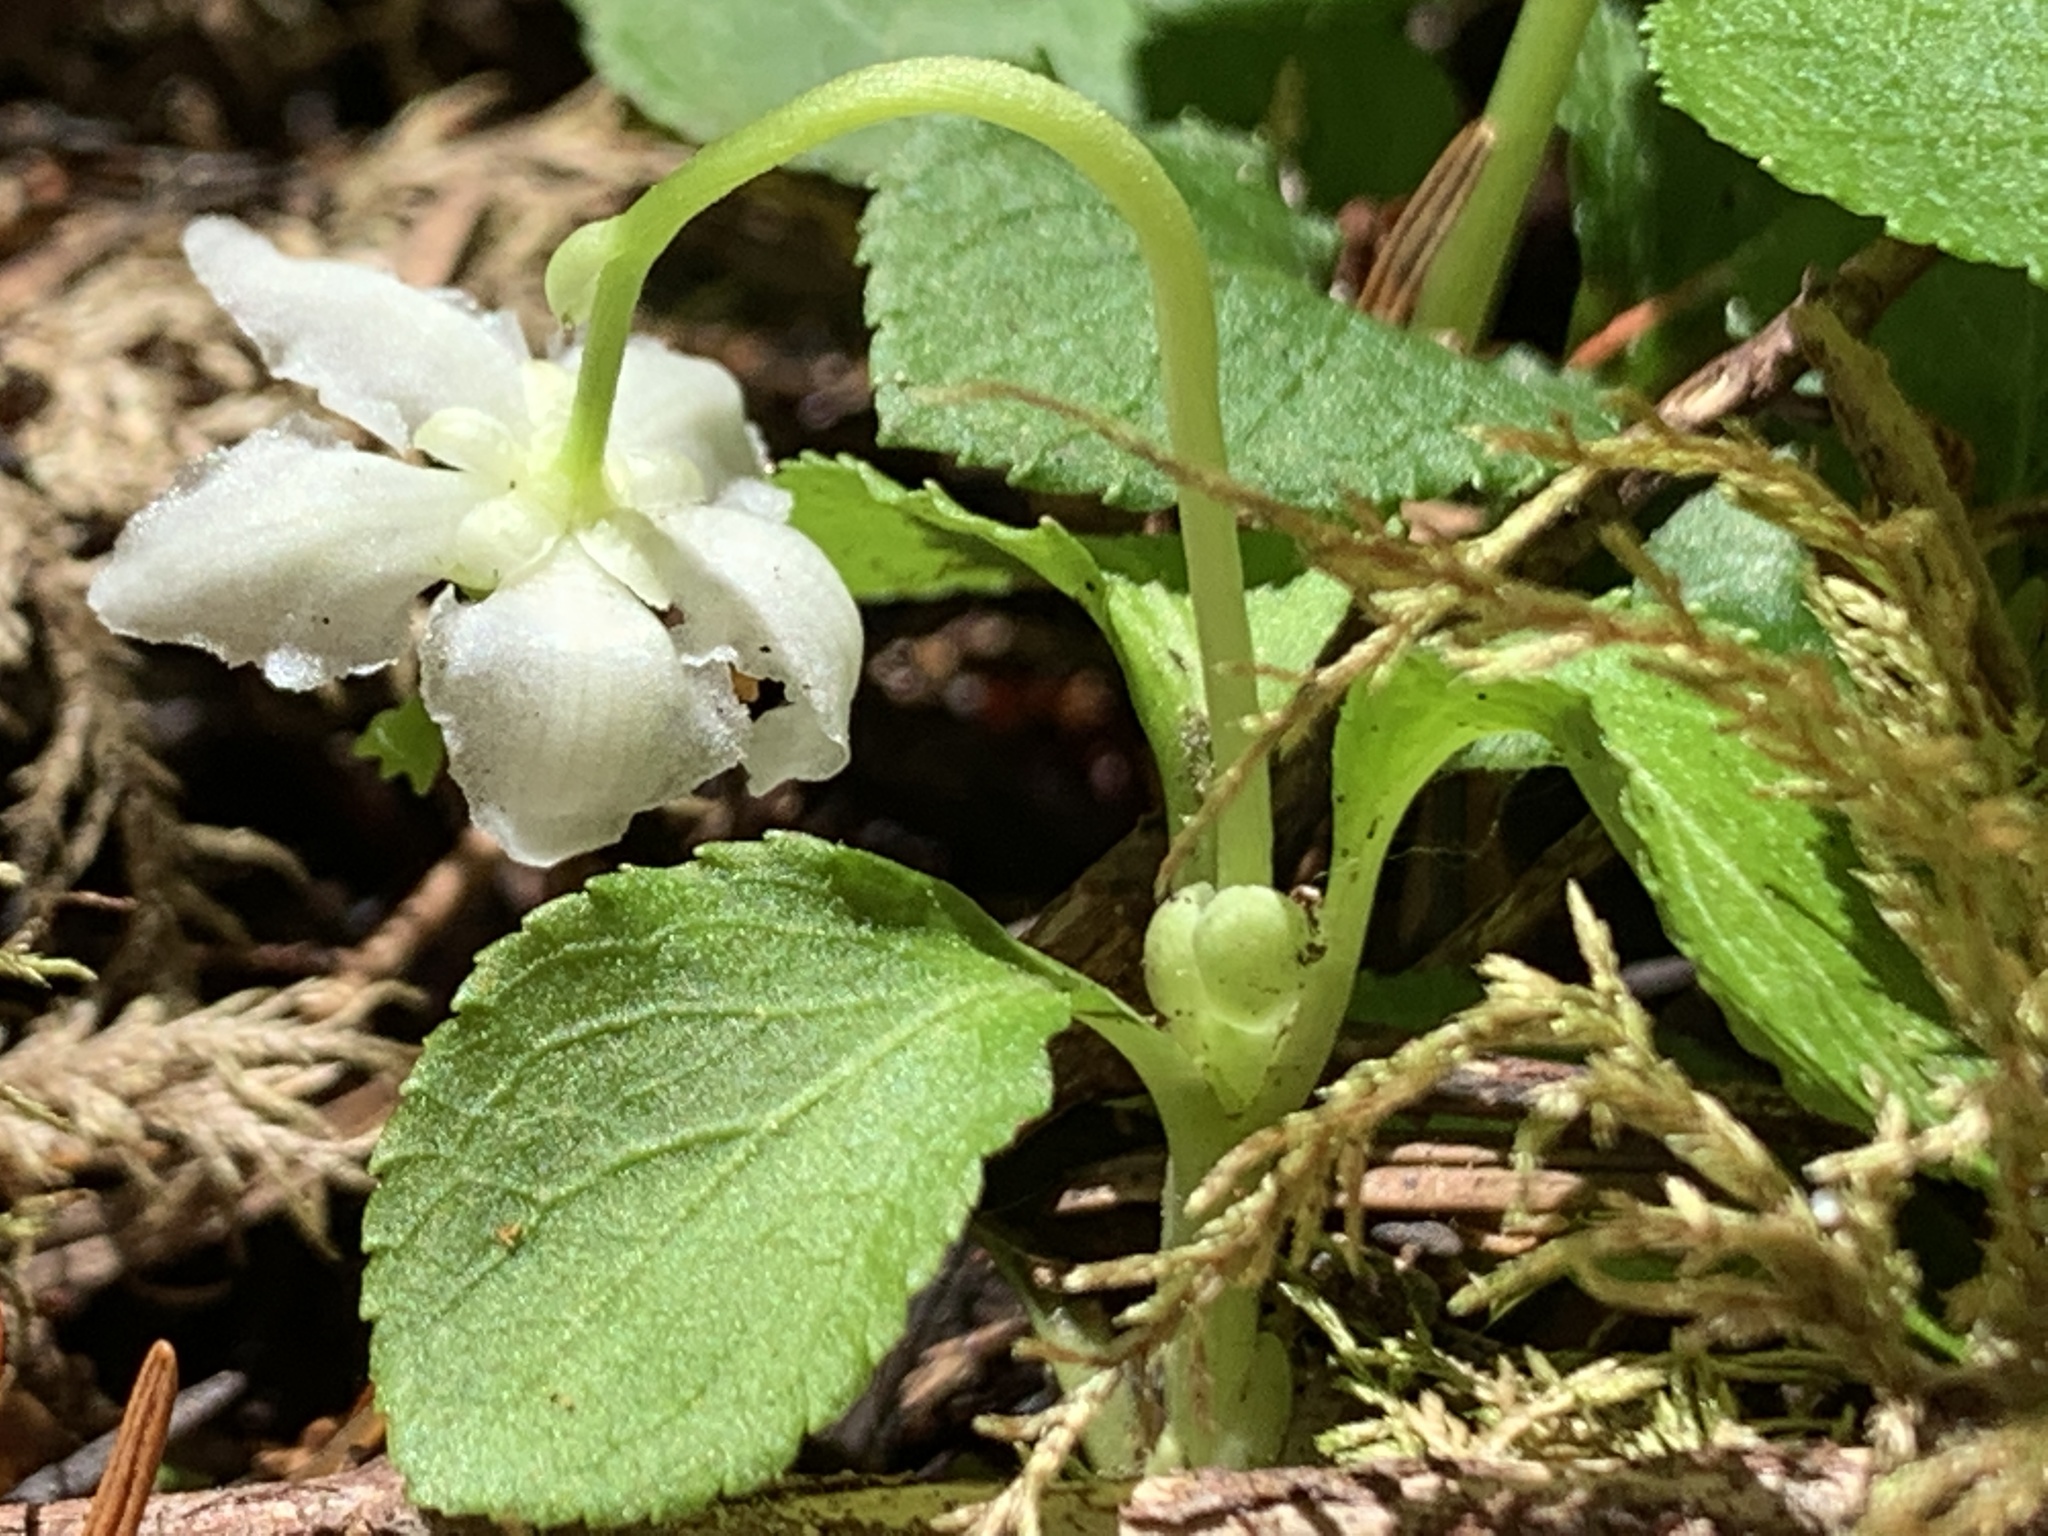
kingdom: Plantae
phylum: Tracheophyta
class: Magnoliopsida
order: Ericales
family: Ericaceae
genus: Moneses
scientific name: Moneses uniflora
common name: One-flowered wintergreen
